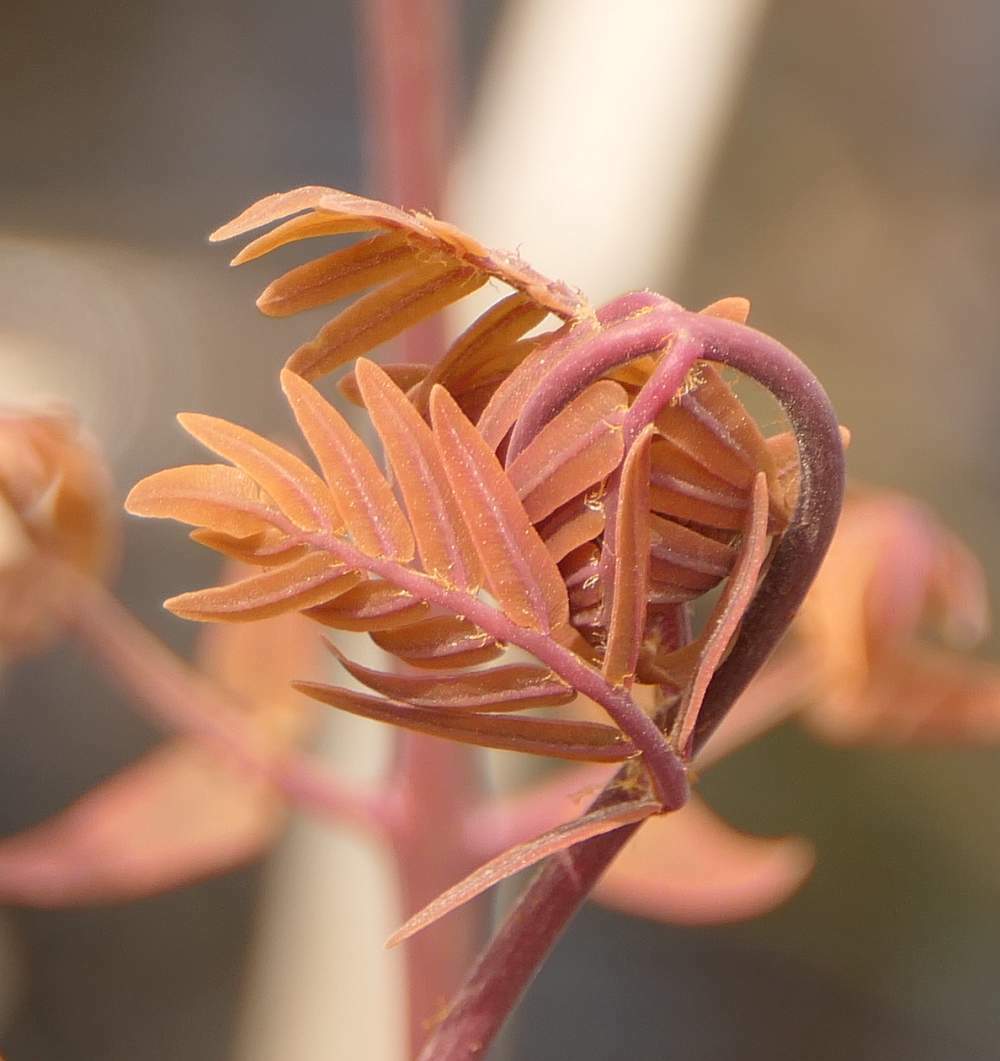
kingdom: Plantae
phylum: Tracheophyta
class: Polypodiopsida
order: Osmundales
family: Osmundaceae
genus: Osmunda
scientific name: Osmunda spectabilis
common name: American royal fern
